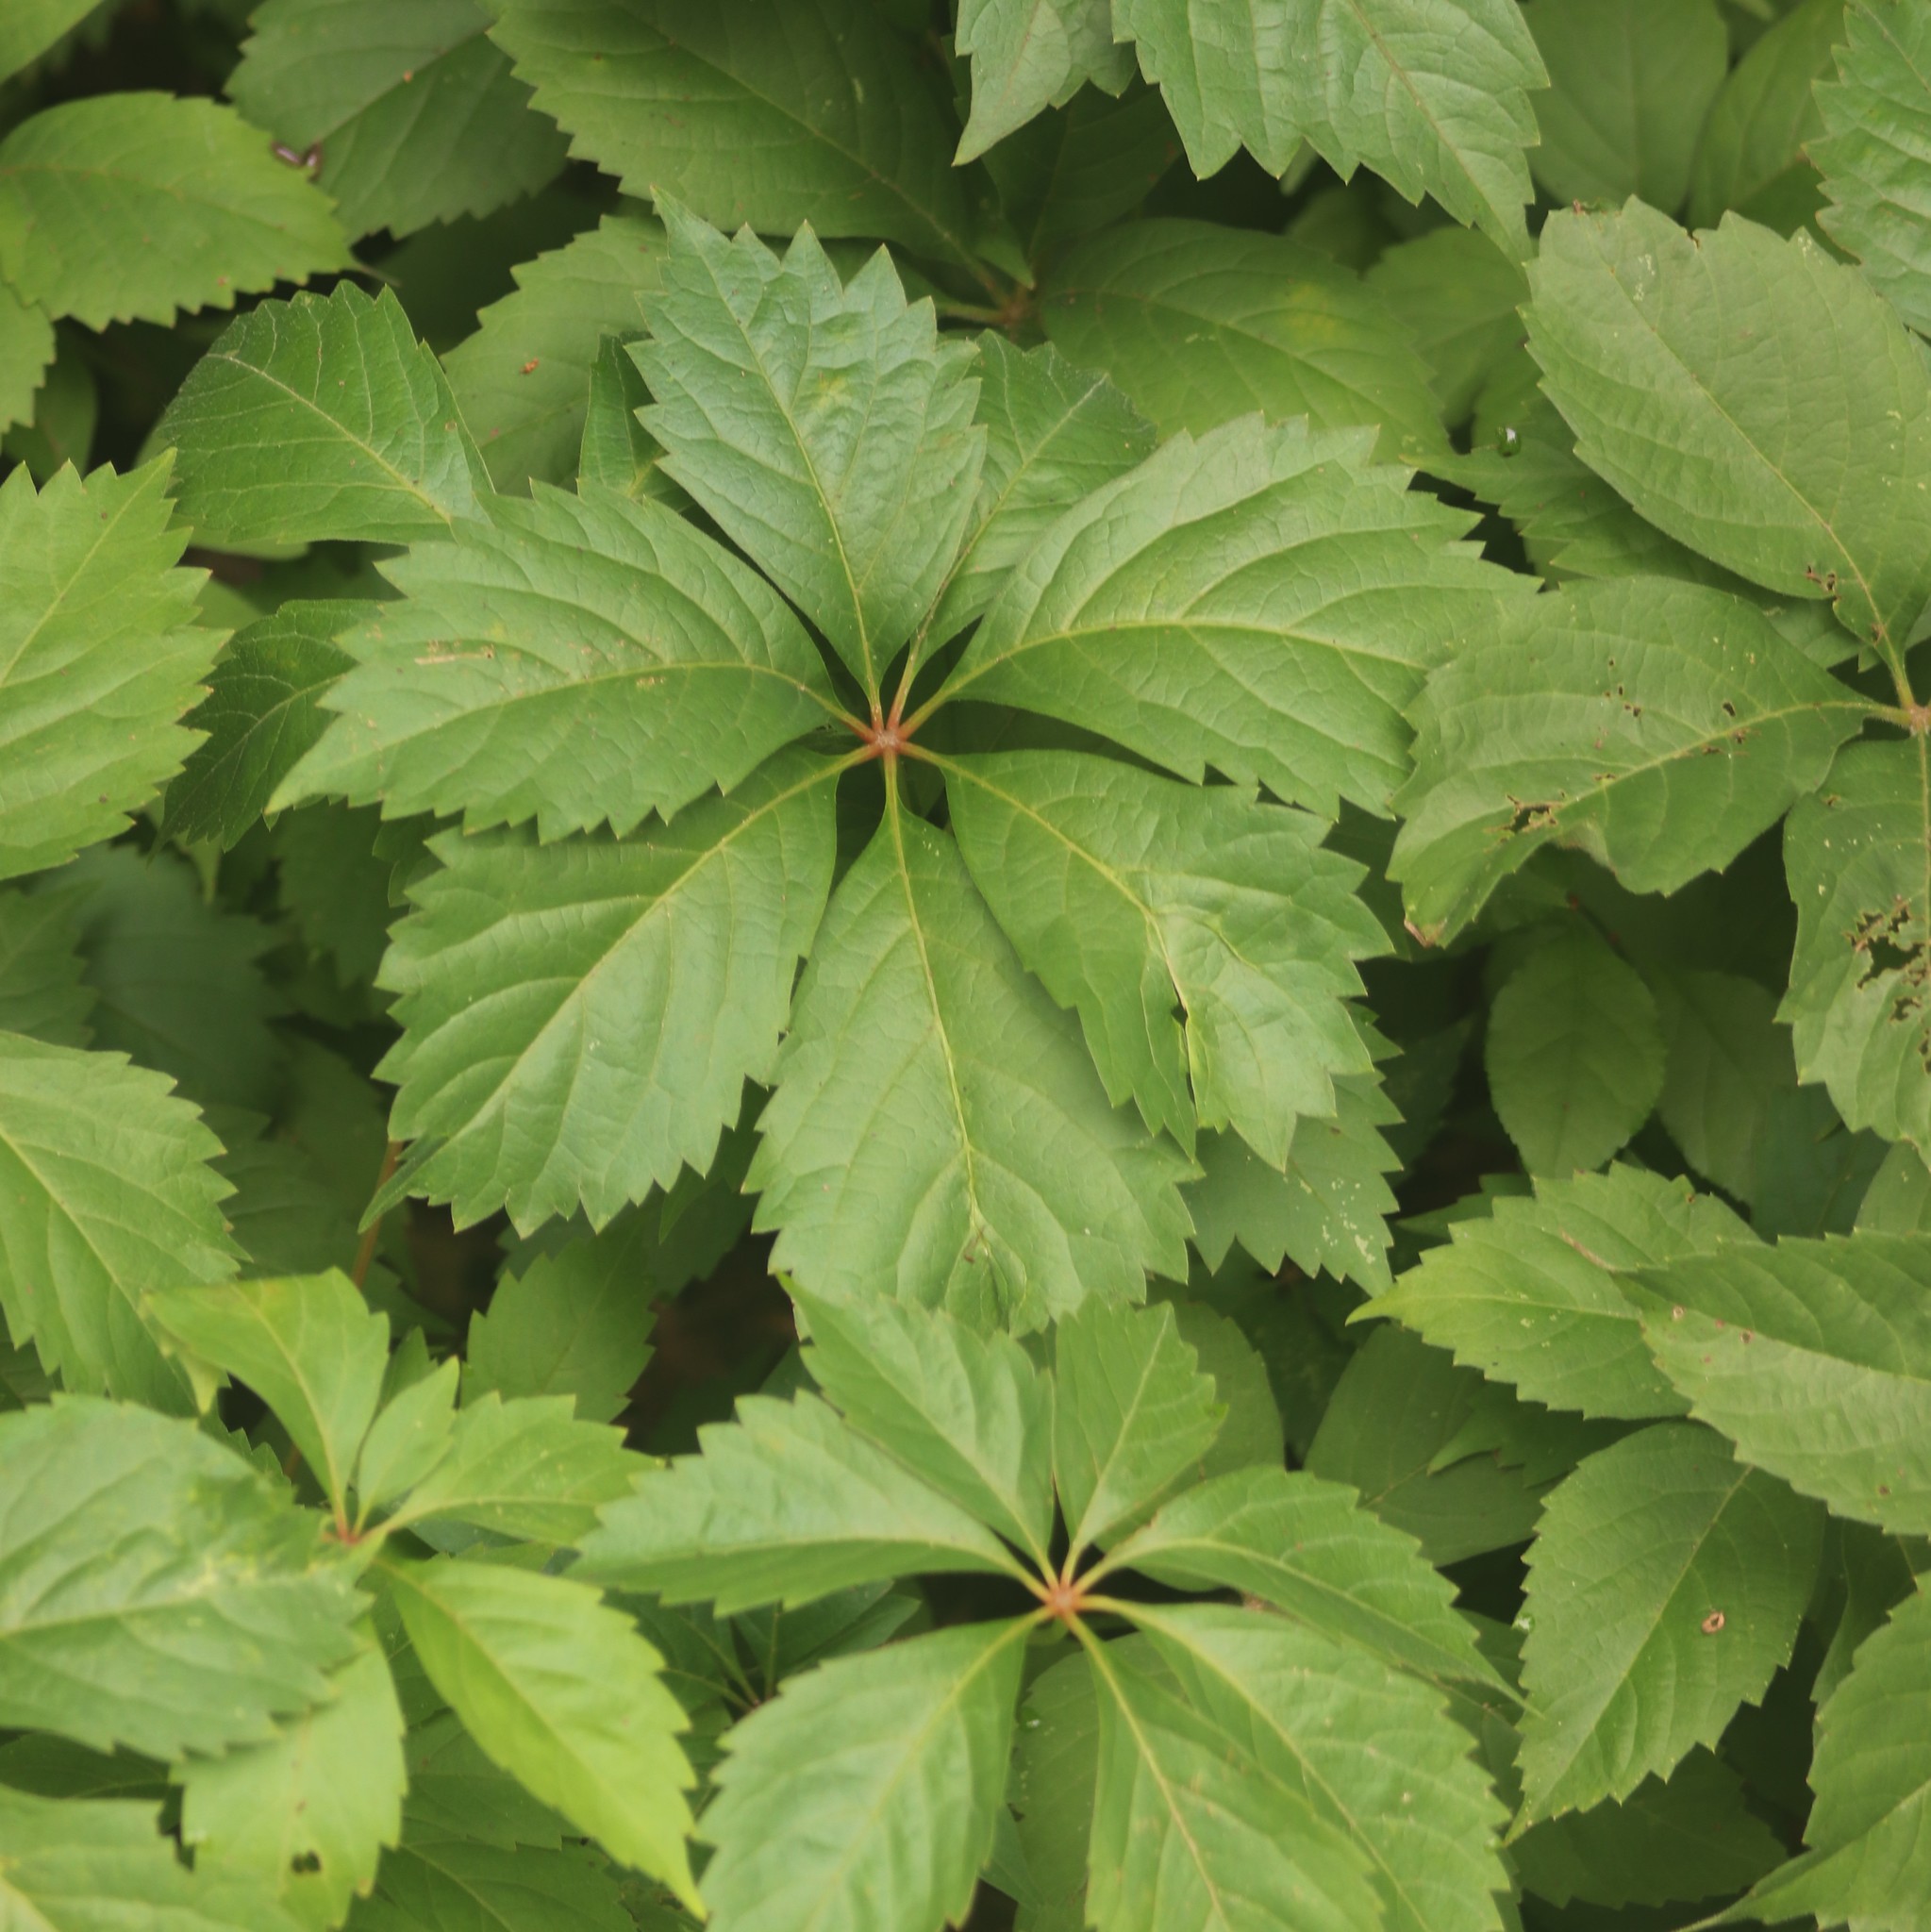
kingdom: Plantae
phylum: Tracheophyta
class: Magnoliopsida
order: Vitales
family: Vitaceae
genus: Parthenocissus
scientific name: Parthenocissus quinquefolia
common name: Virginia-creeper
